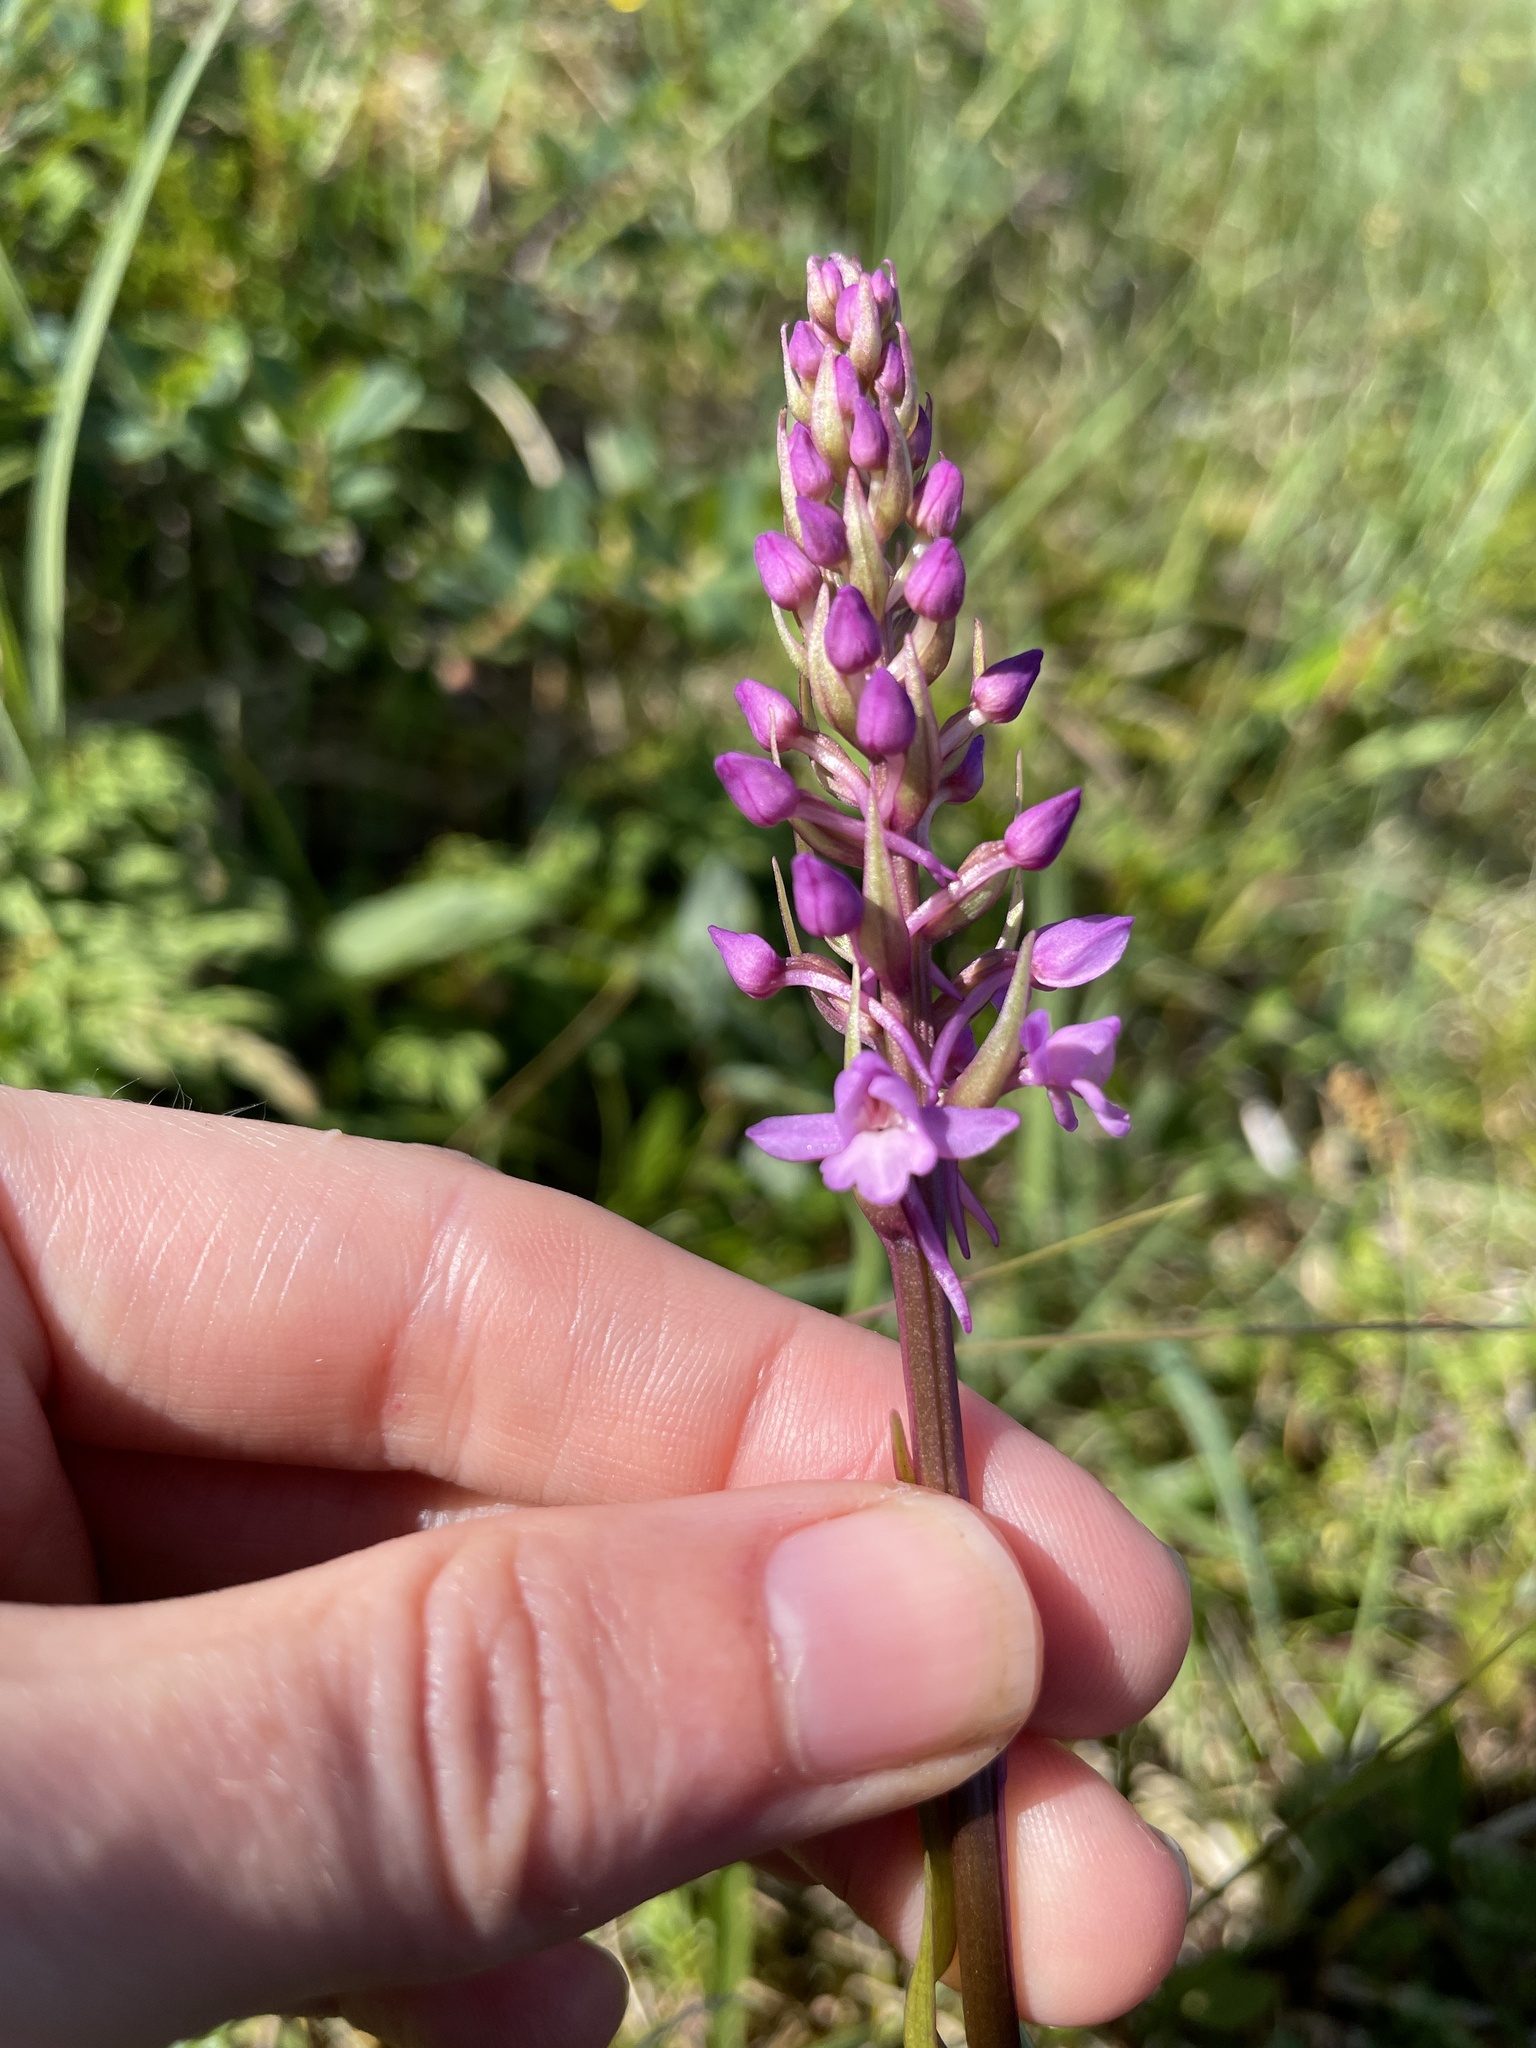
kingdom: Plantae
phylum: Tracheophyta
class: Liliopsida
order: Asparagales
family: Orchidaceae
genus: Gymnadenia
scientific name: Gymnadenia conopsea
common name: Fragrant orchid
